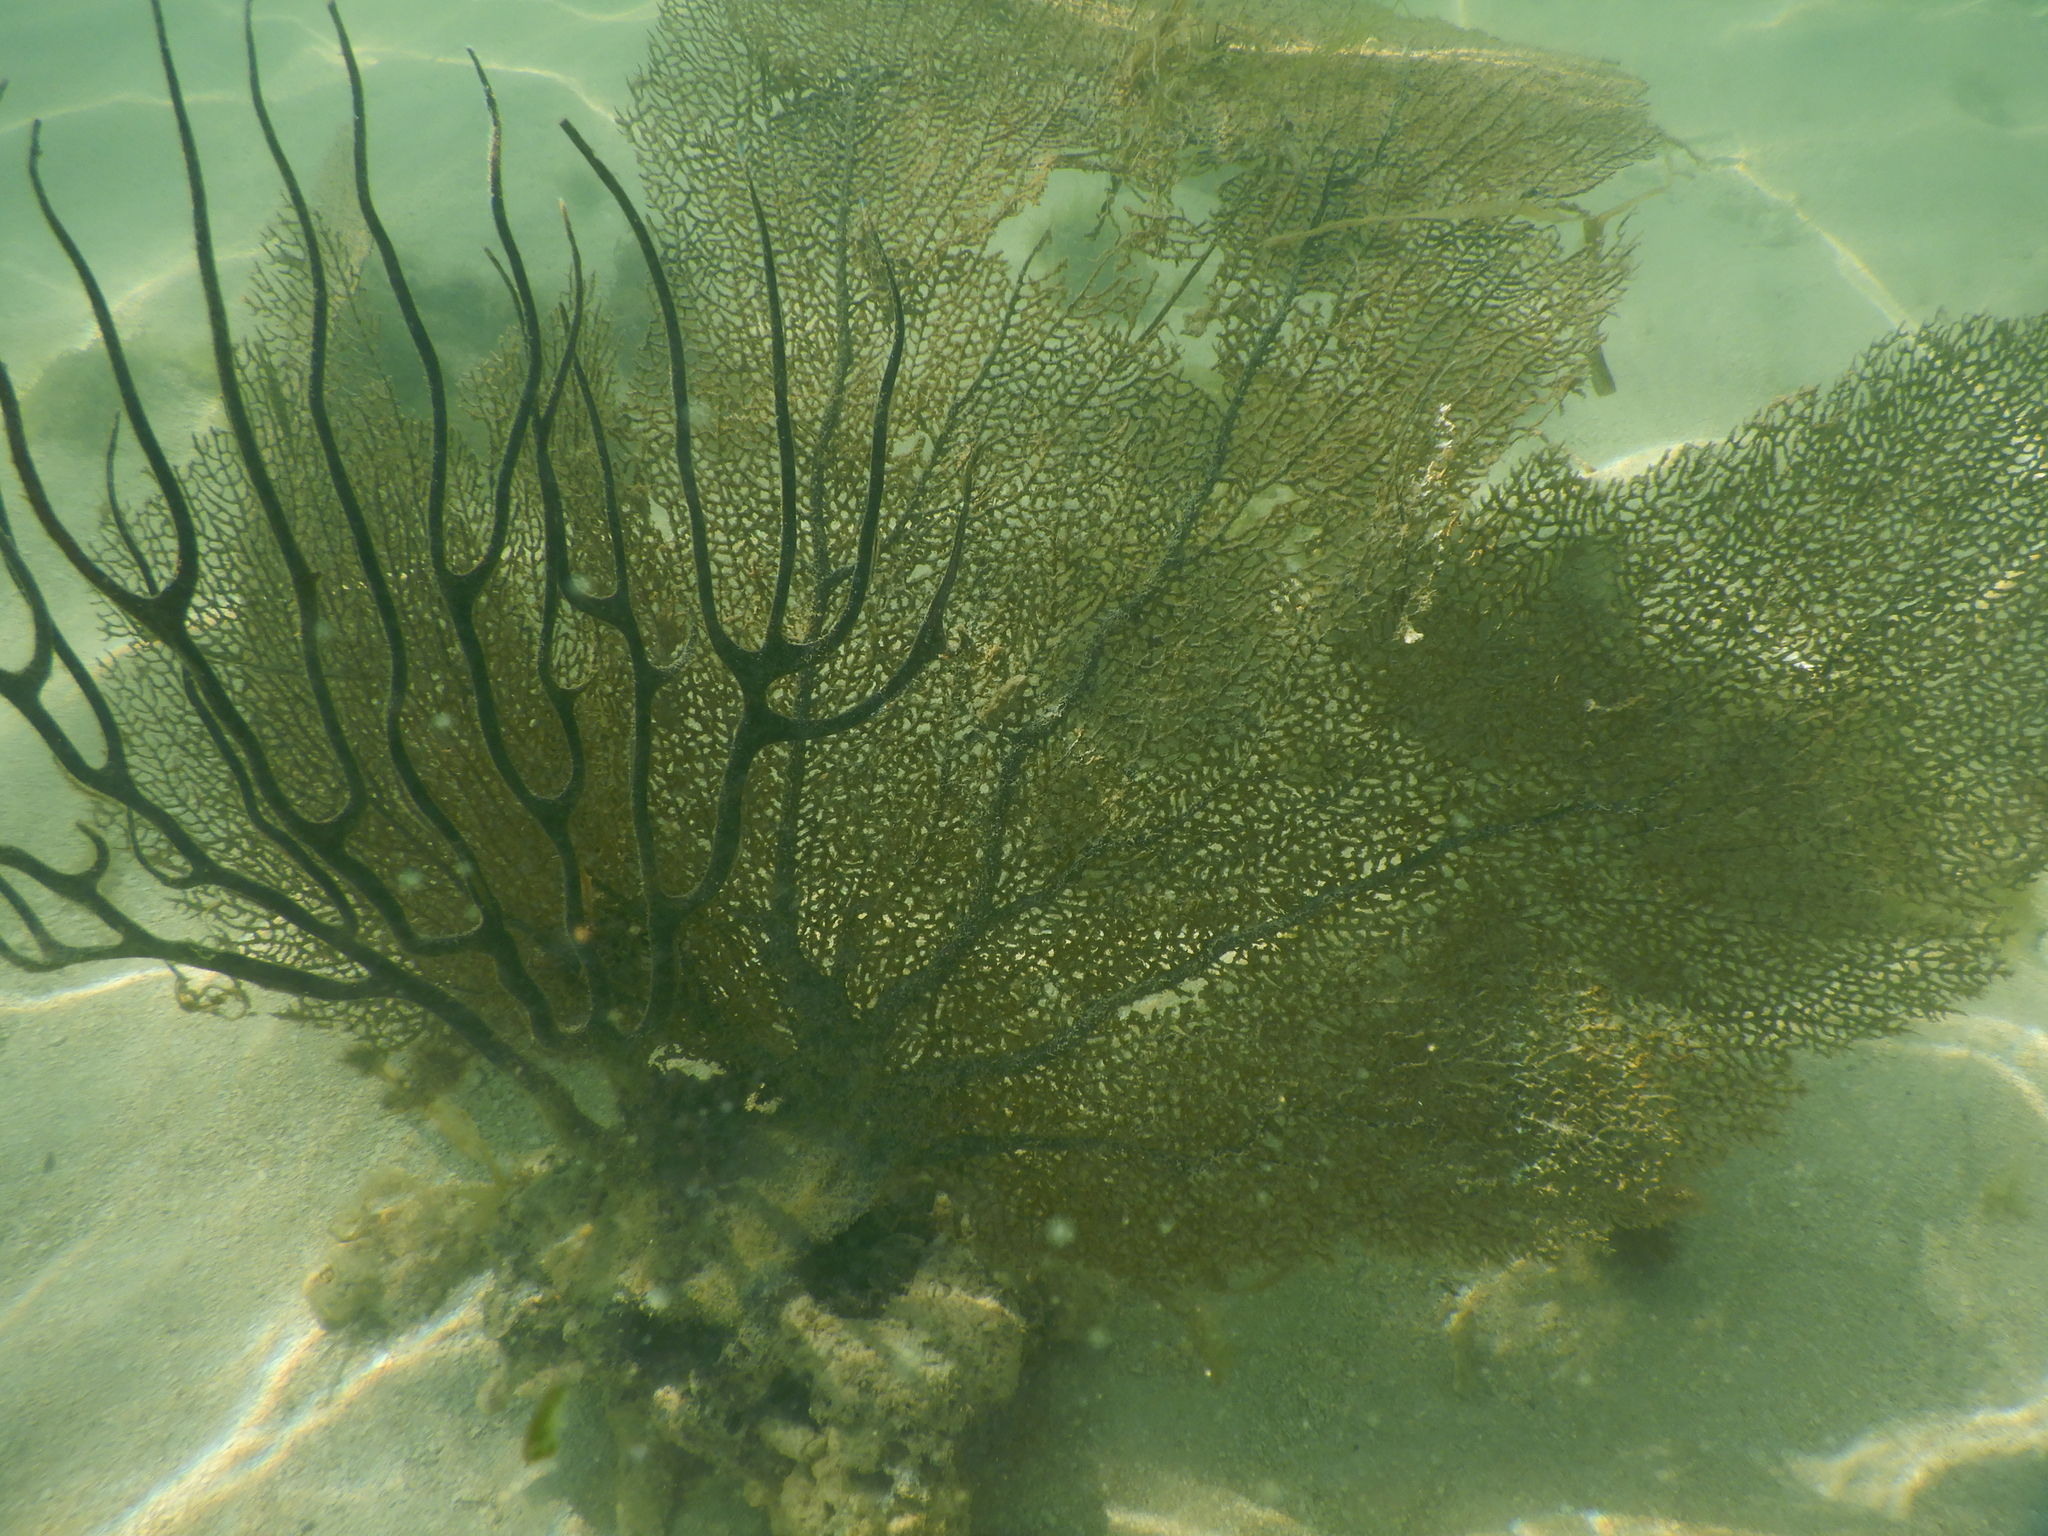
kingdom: Animalia
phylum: Cnidaria
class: Anthozoa
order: Malacalcyonacea
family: Gorgoniidae
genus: Gorgonia
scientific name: Gorgonia ventalina
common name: Common sea fan
